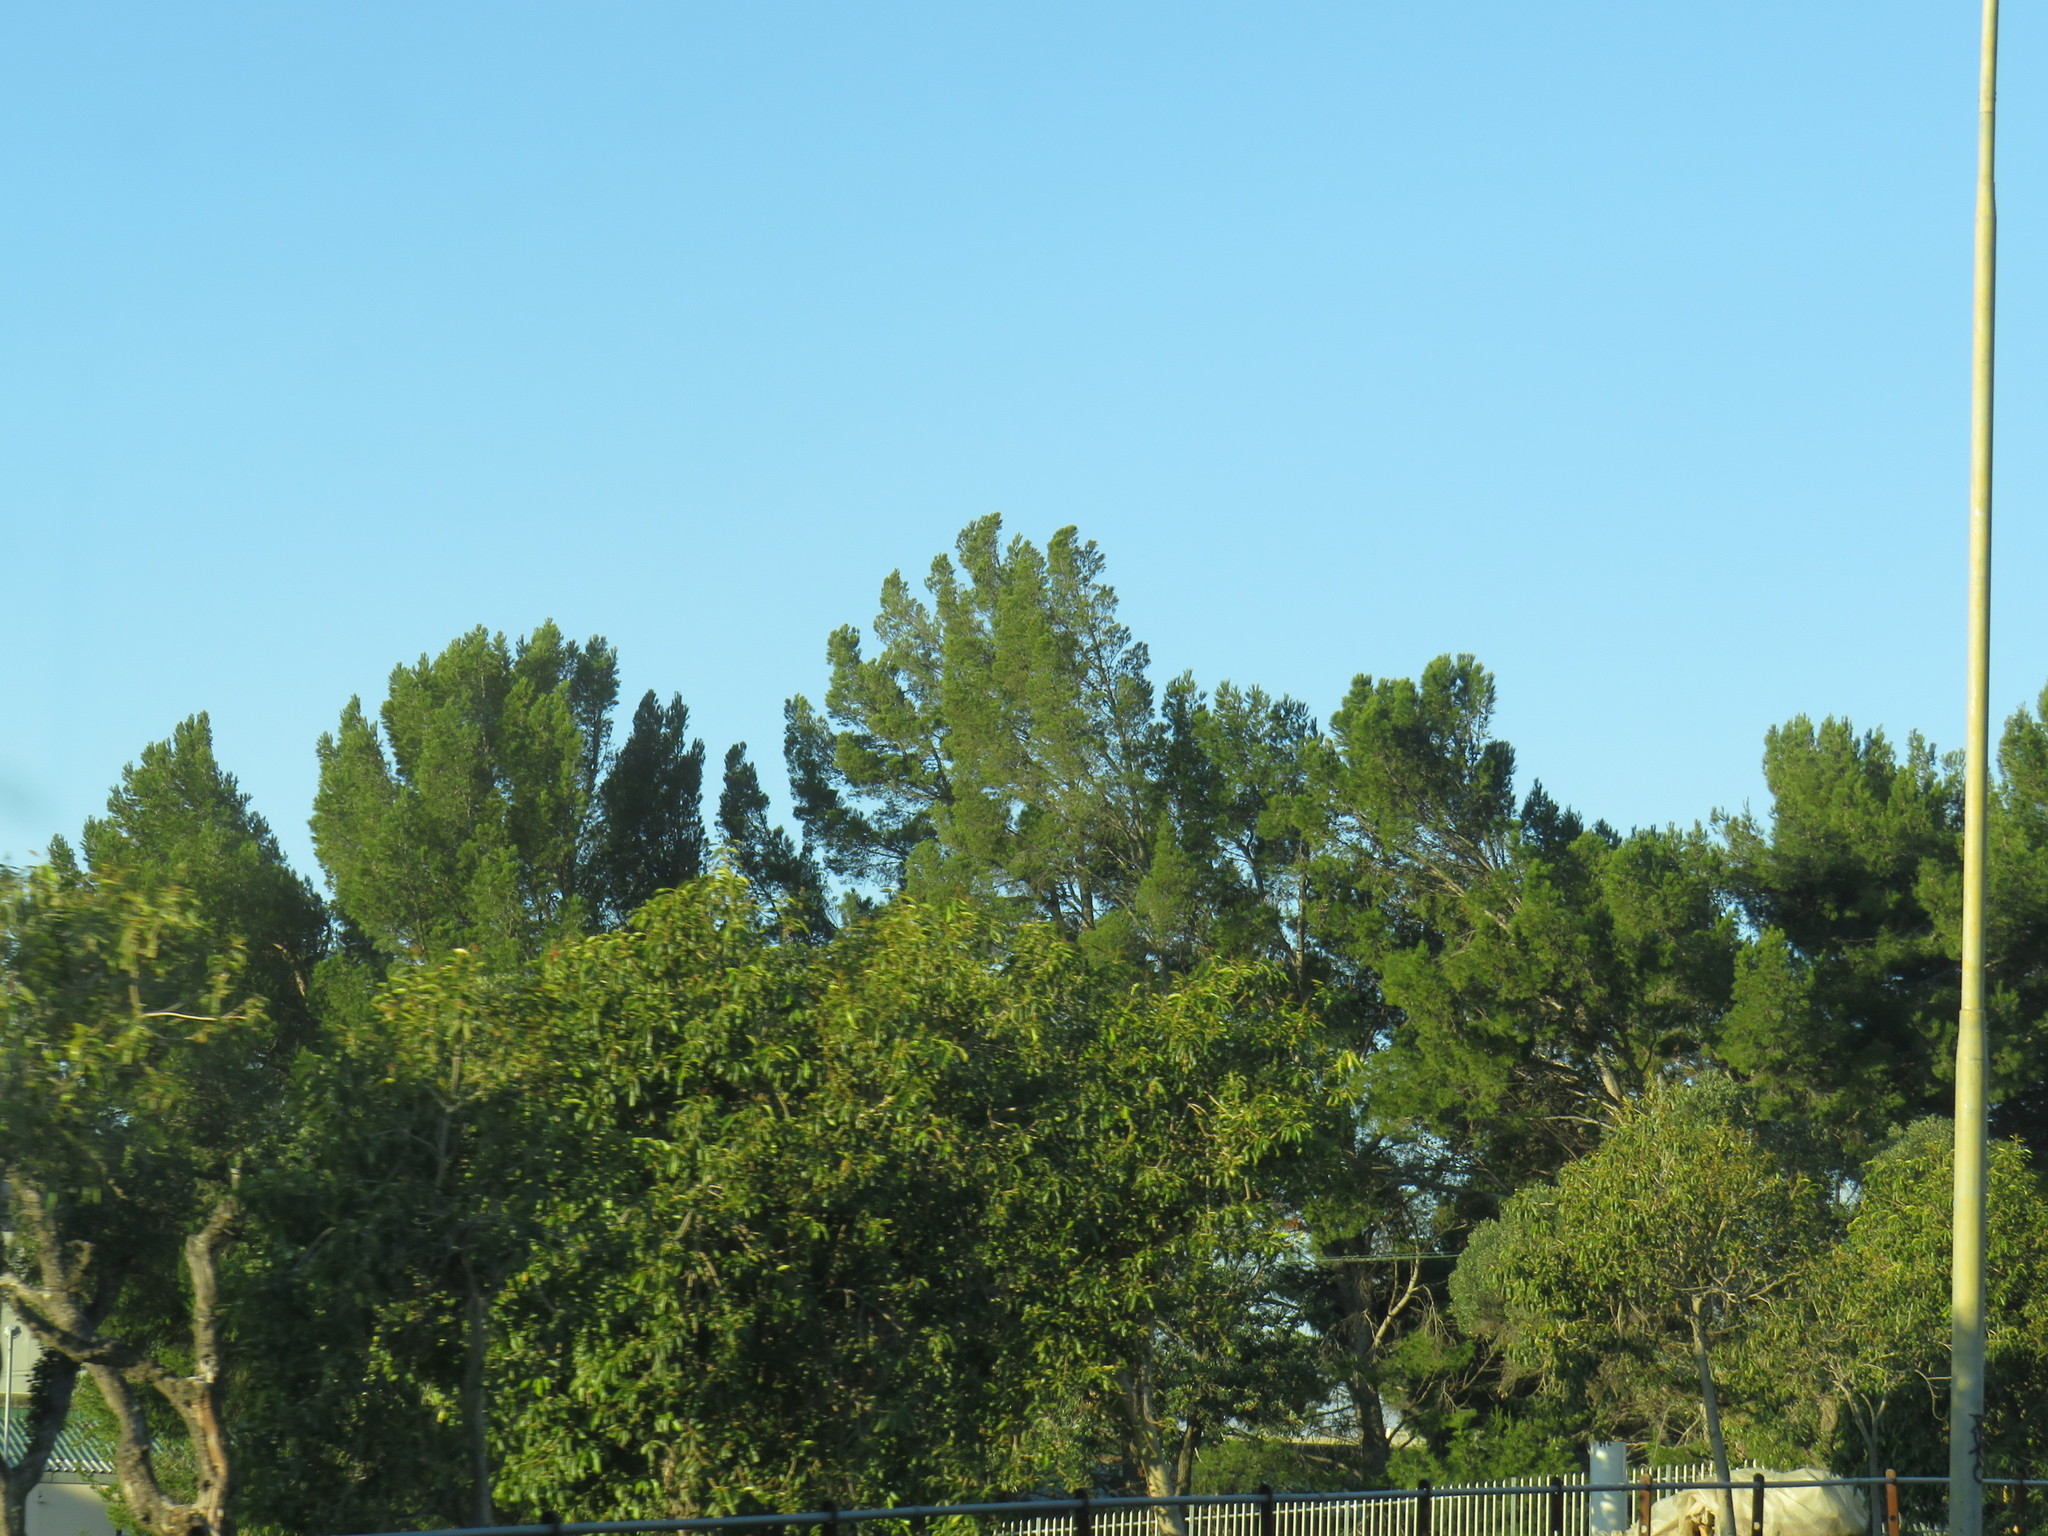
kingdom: Plantae
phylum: Tracheophyta
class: Pinopsida
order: Pinales
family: Pinaceae
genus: Pinus
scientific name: Pinus halepensis
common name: Aleppo pine
